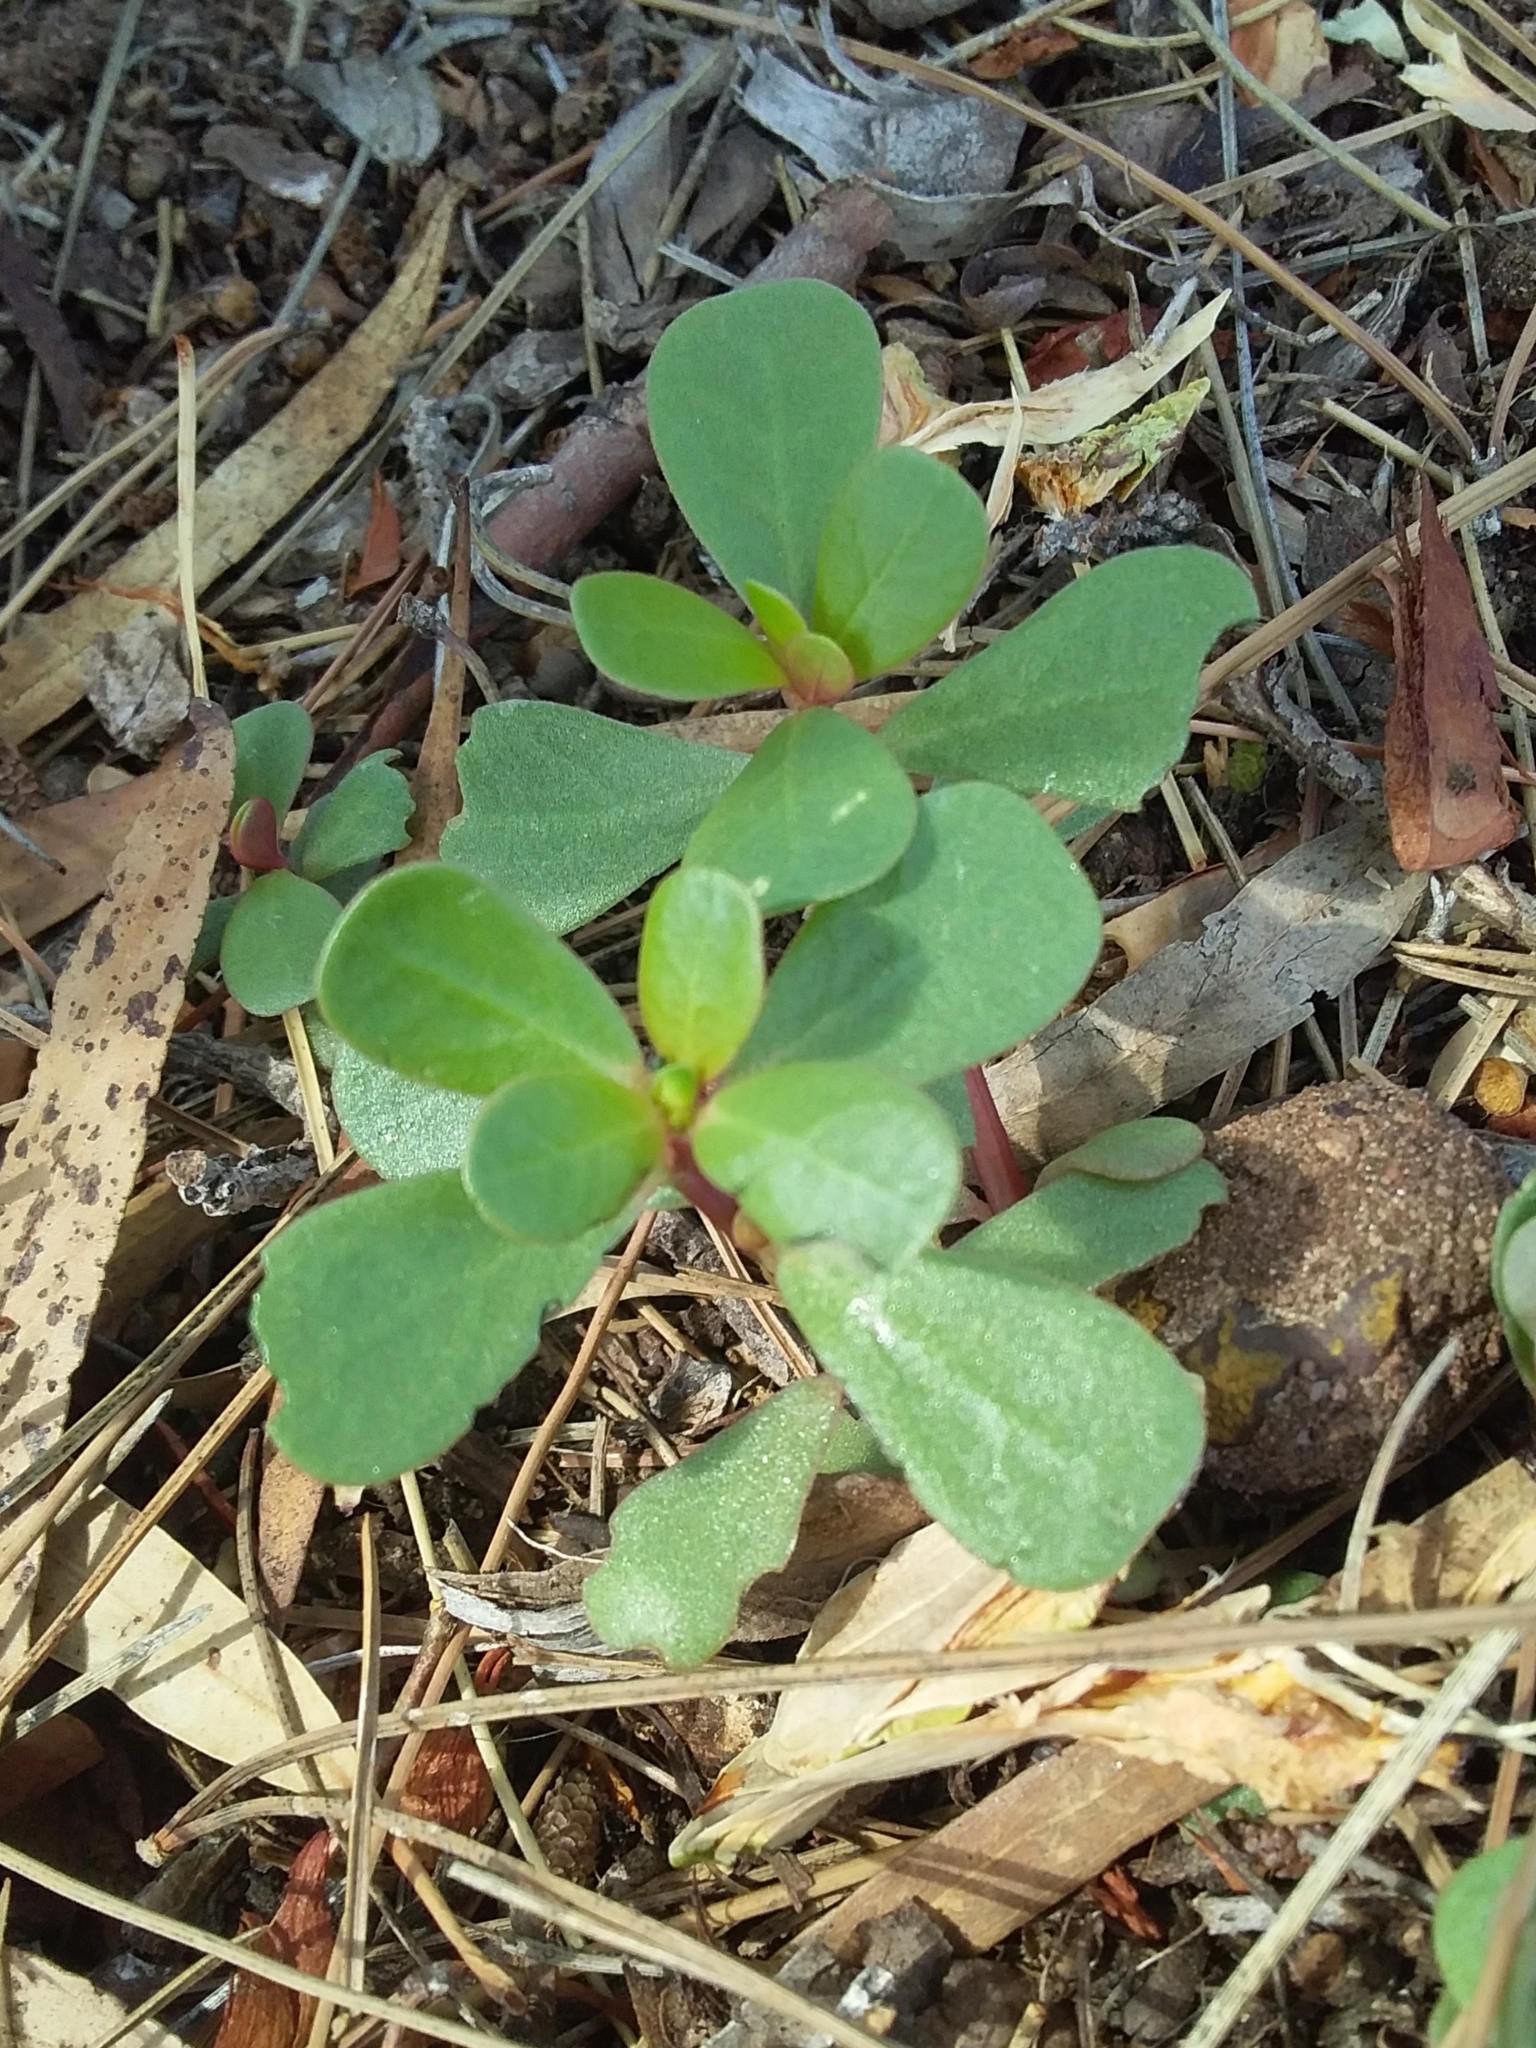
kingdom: Plantae
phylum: Tracheophyta
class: Magnoliopsida
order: Caryophyllales
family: Portulacaceae
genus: Portulaca
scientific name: Portulaca oleracea
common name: Common purslane
